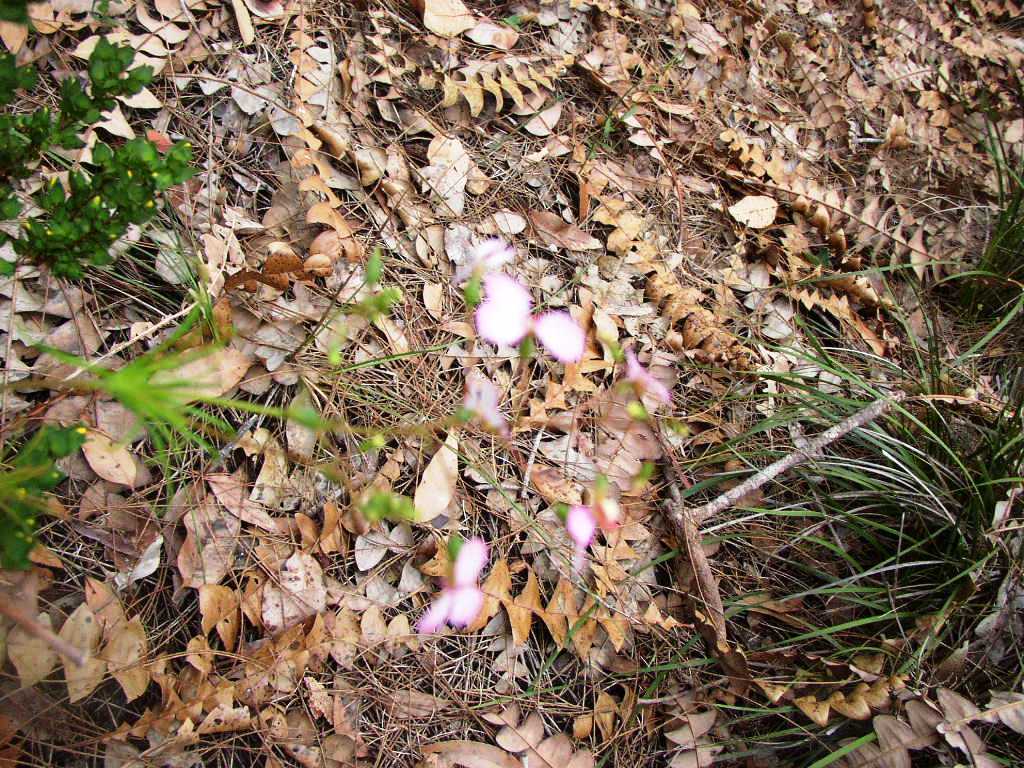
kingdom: Plantae
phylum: Tracheophyta
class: Magnoliopsida
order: Asterales
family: Stylidiaceae
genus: Stylidium
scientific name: Stylidium scandens
